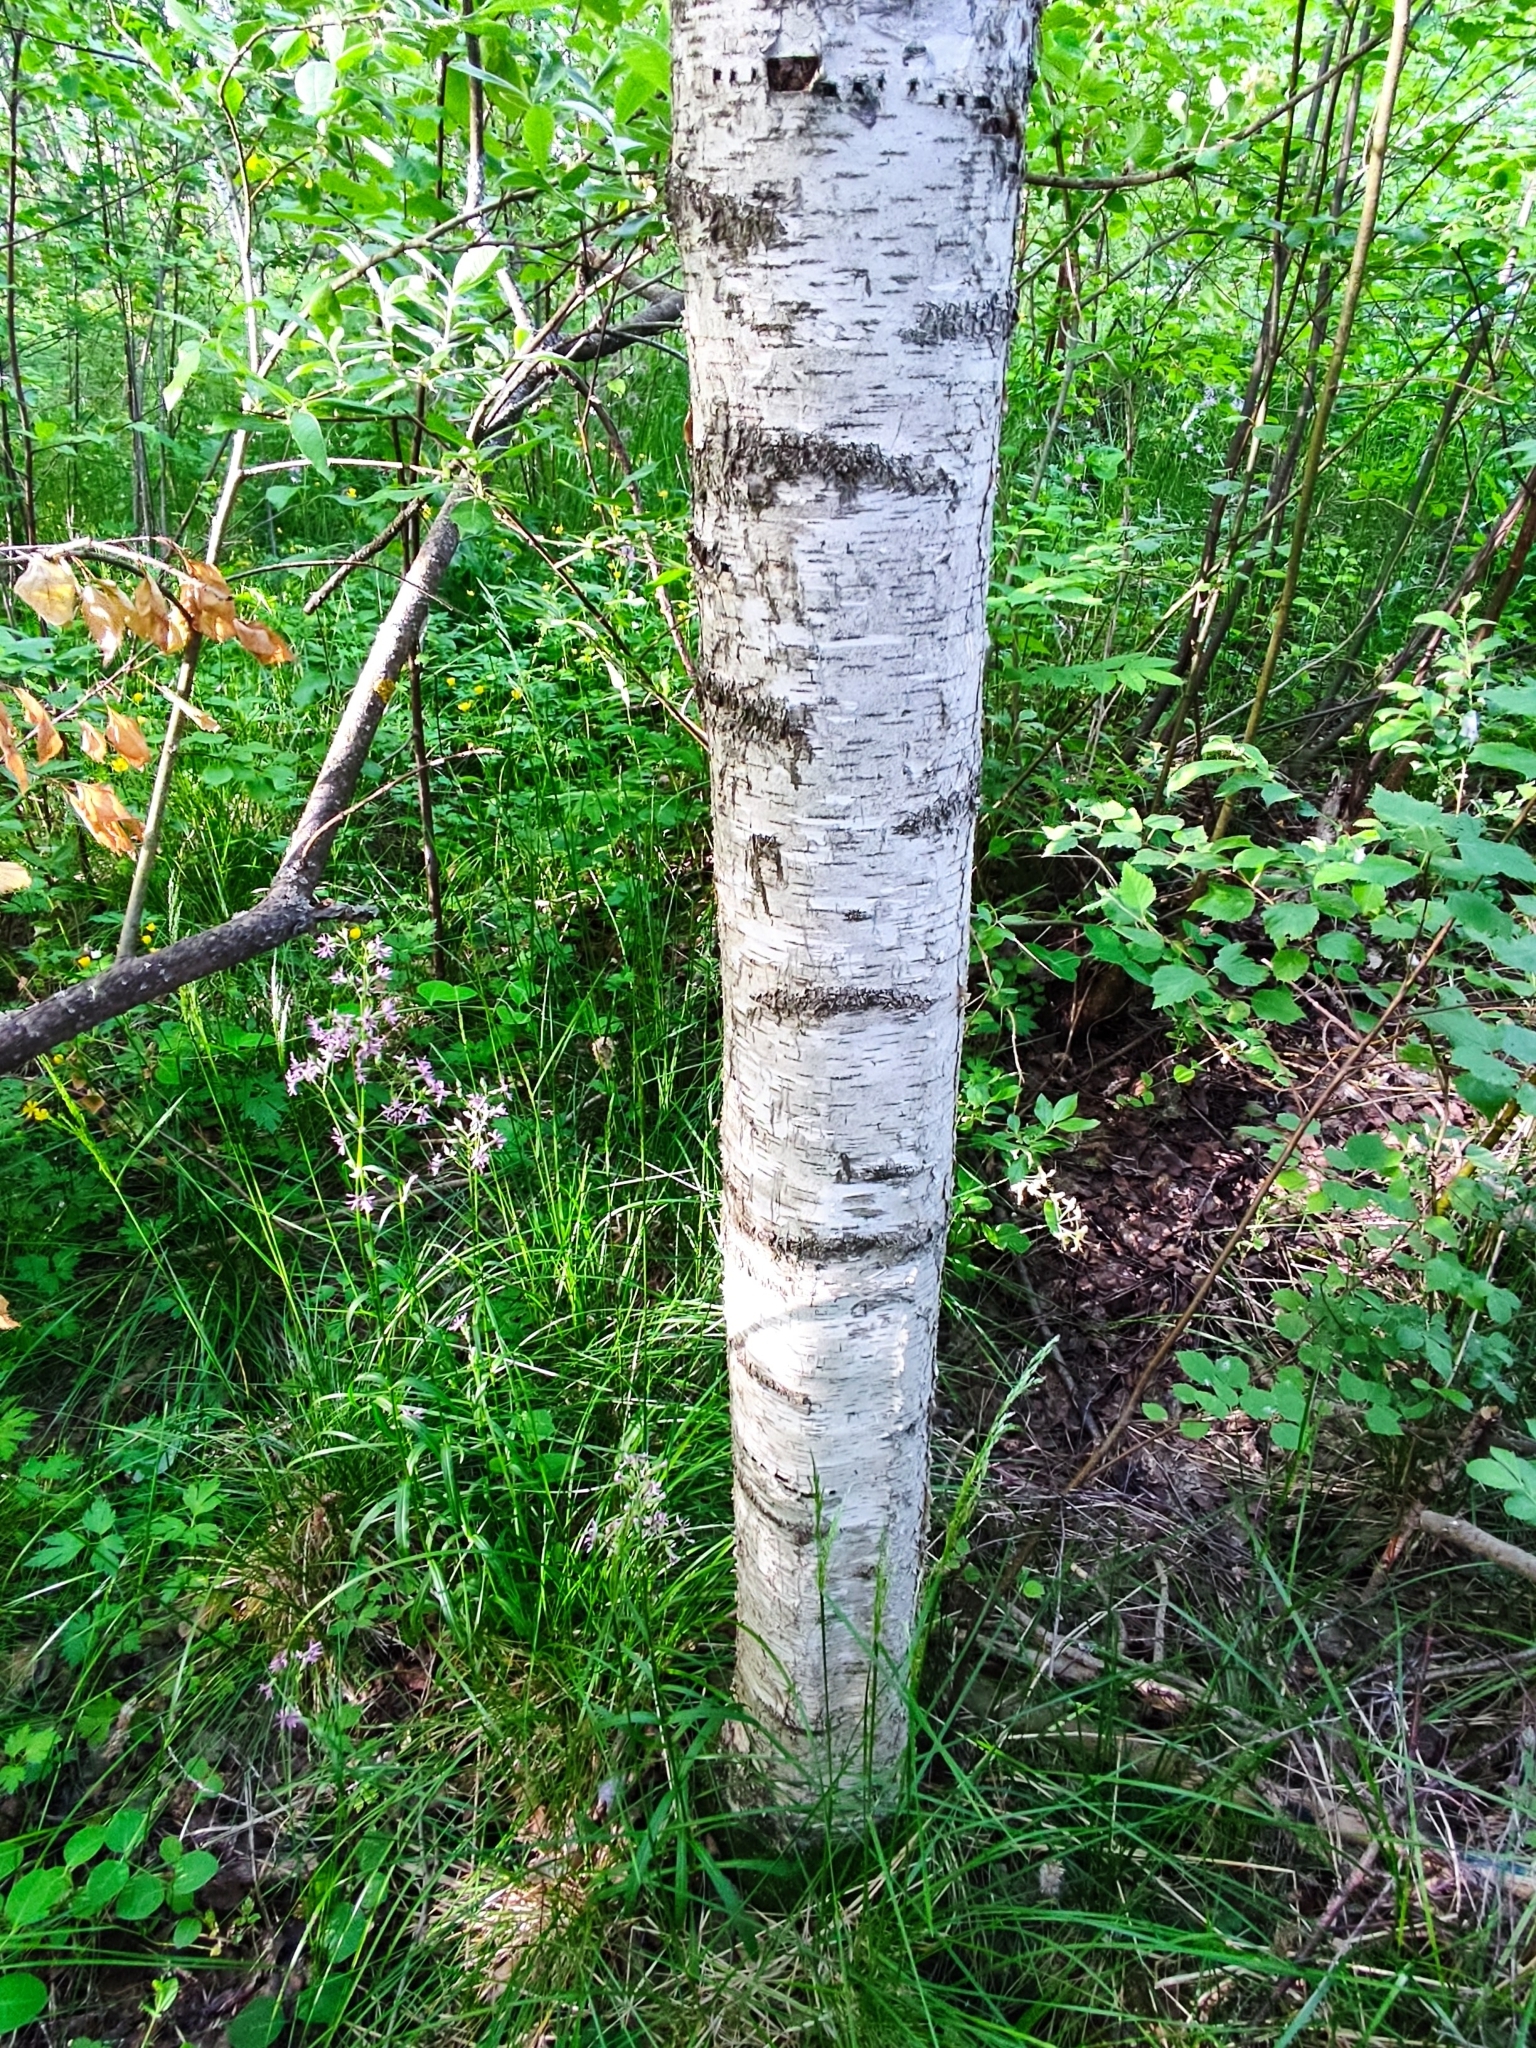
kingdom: Plantae
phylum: Tracheophyta
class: Magnoliopsida
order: Fagales
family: Betulaceae
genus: Betula
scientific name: Betula pubescens
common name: Downy birch
